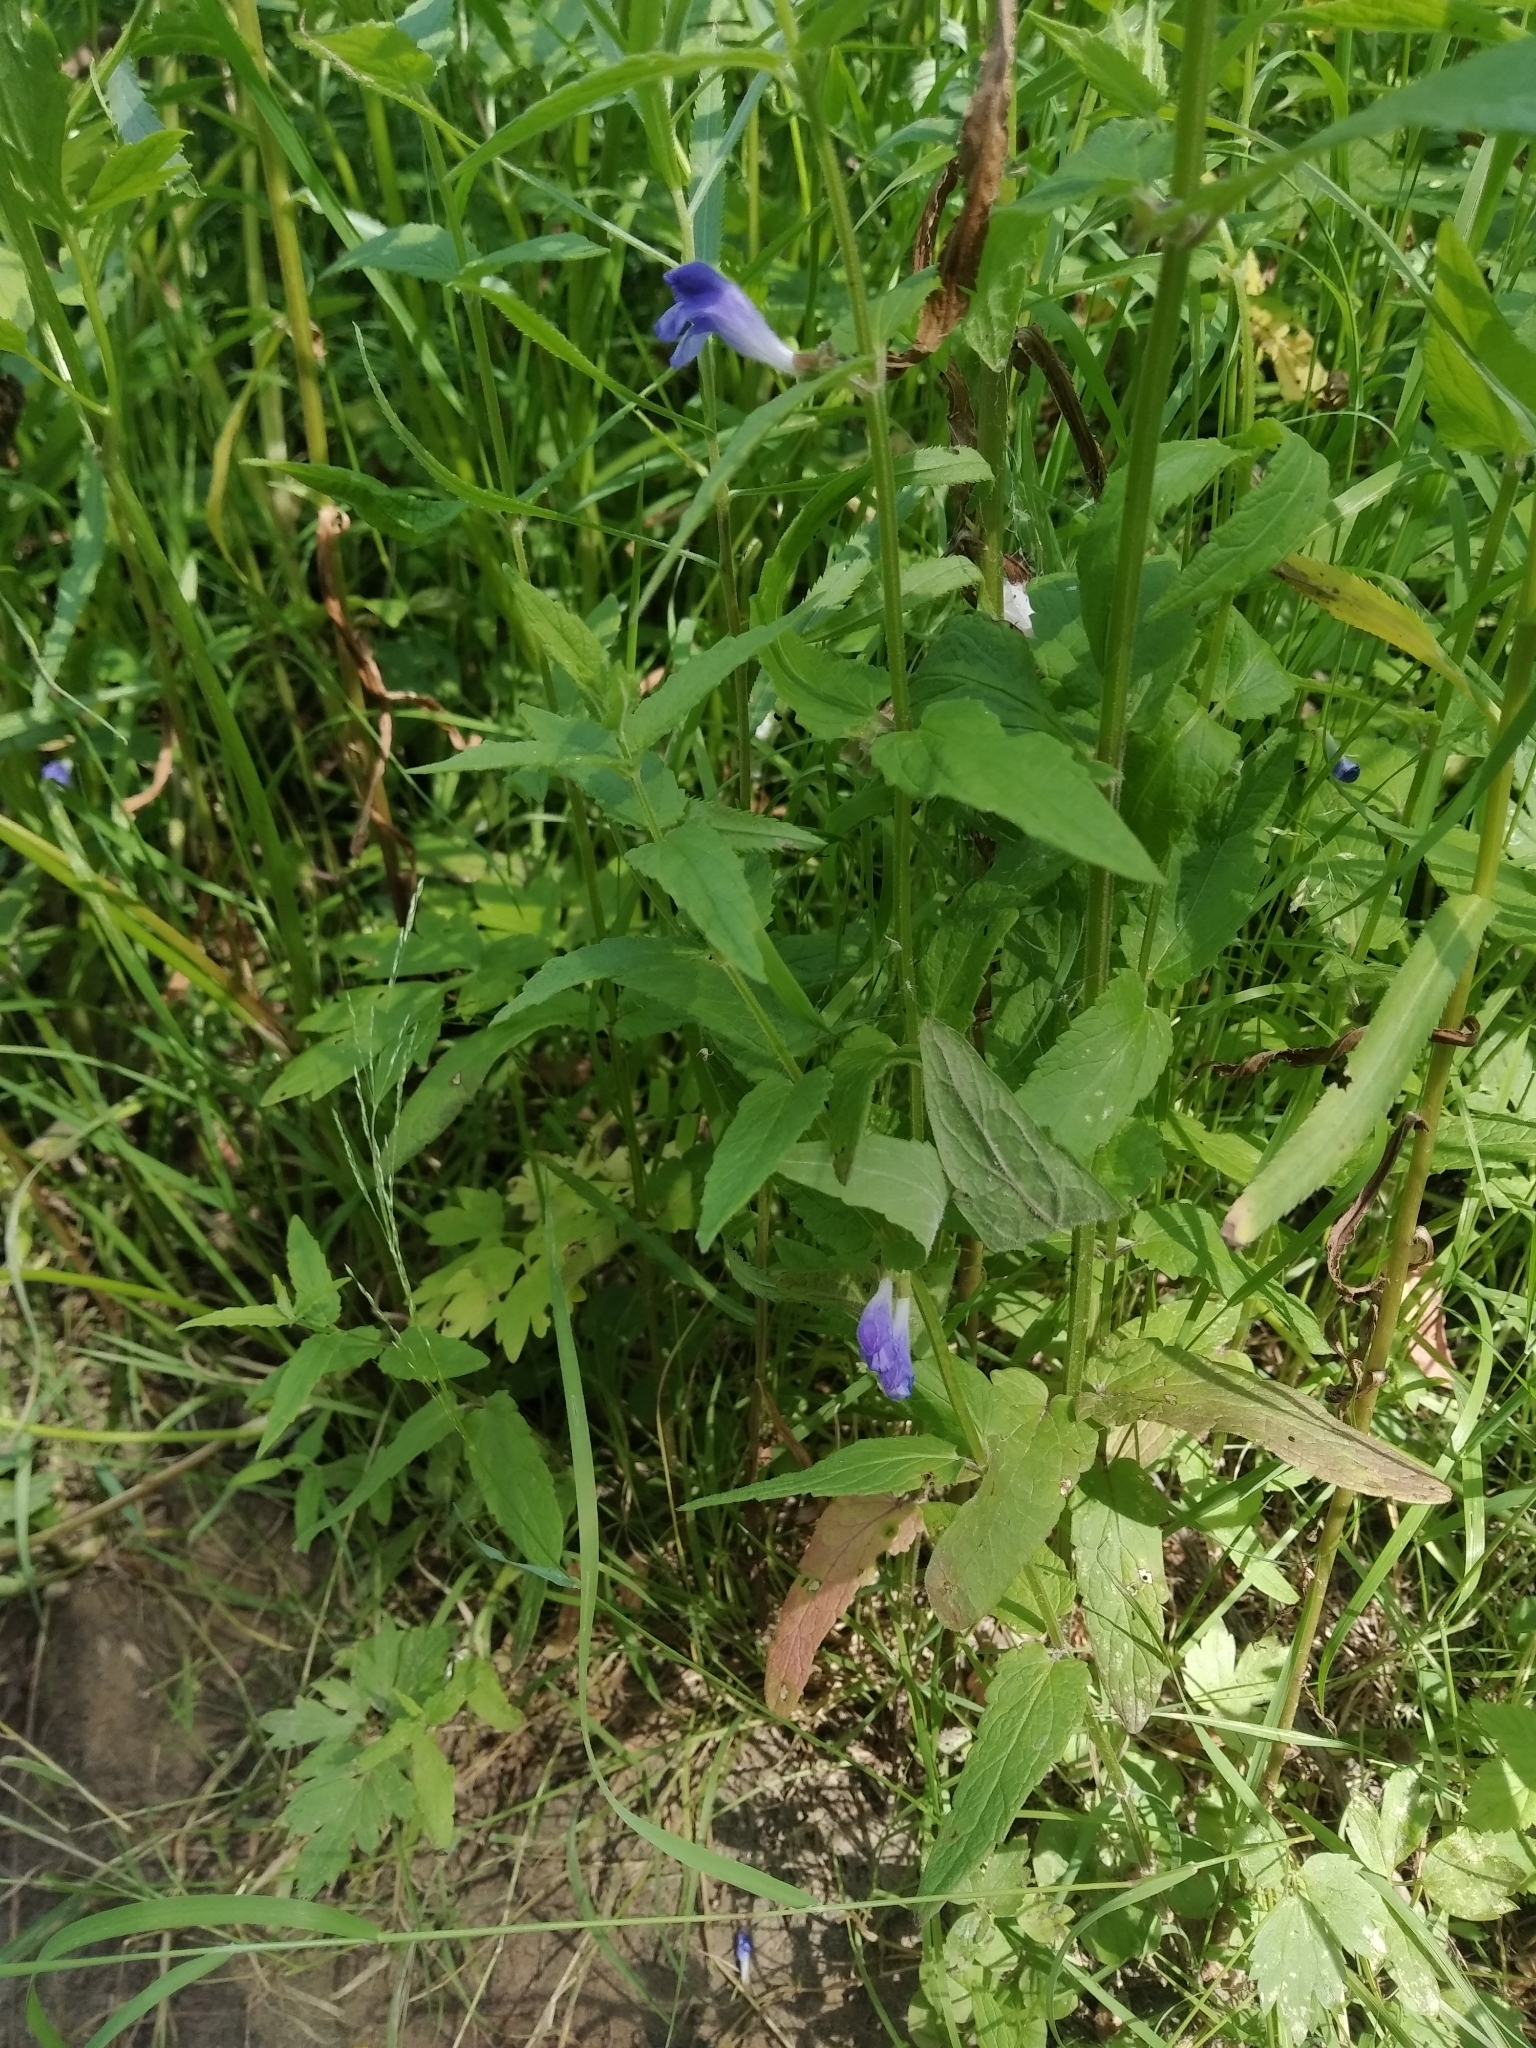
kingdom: Plantae
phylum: Tracheophyta
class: Magnoliopsida
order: Lamiales
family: Lamiaceae
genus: Scutellaria
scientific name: Scutellaria galericulata
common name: Skullcap
